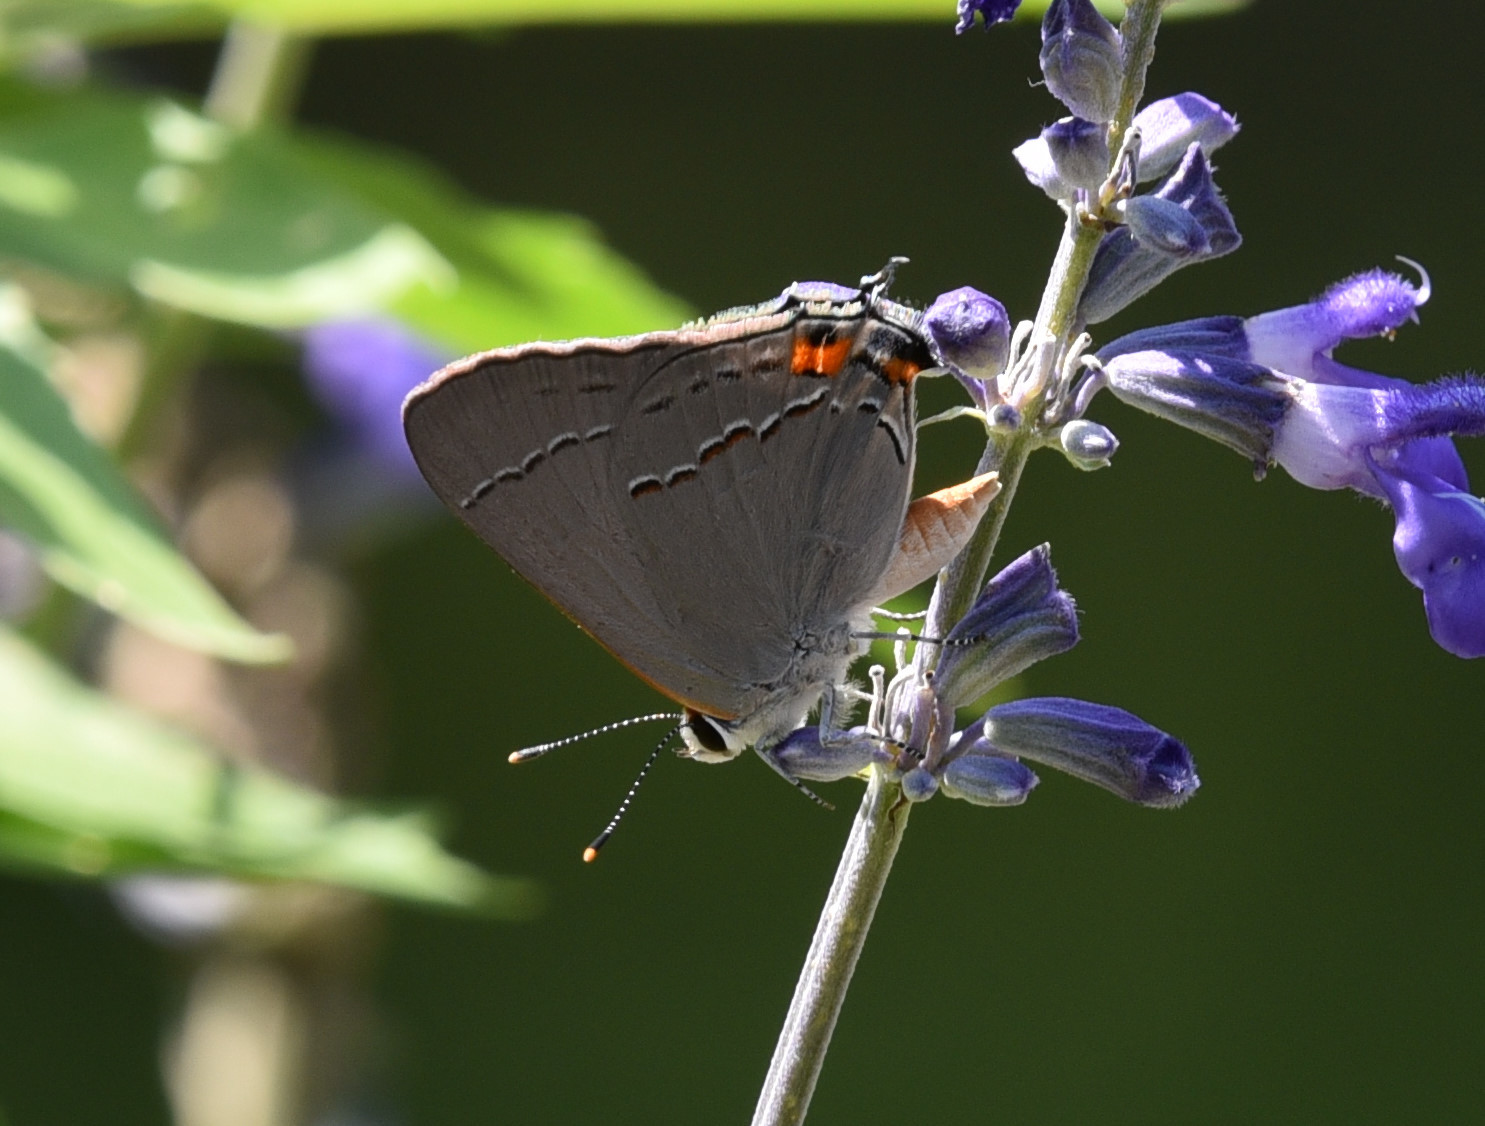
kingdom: Animalia
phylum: Arthropoda
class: Insecta
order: Lepidoptera
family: Lycaenidae
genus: Strymon
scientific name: Strymon melinus
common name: Gray hairstreak
